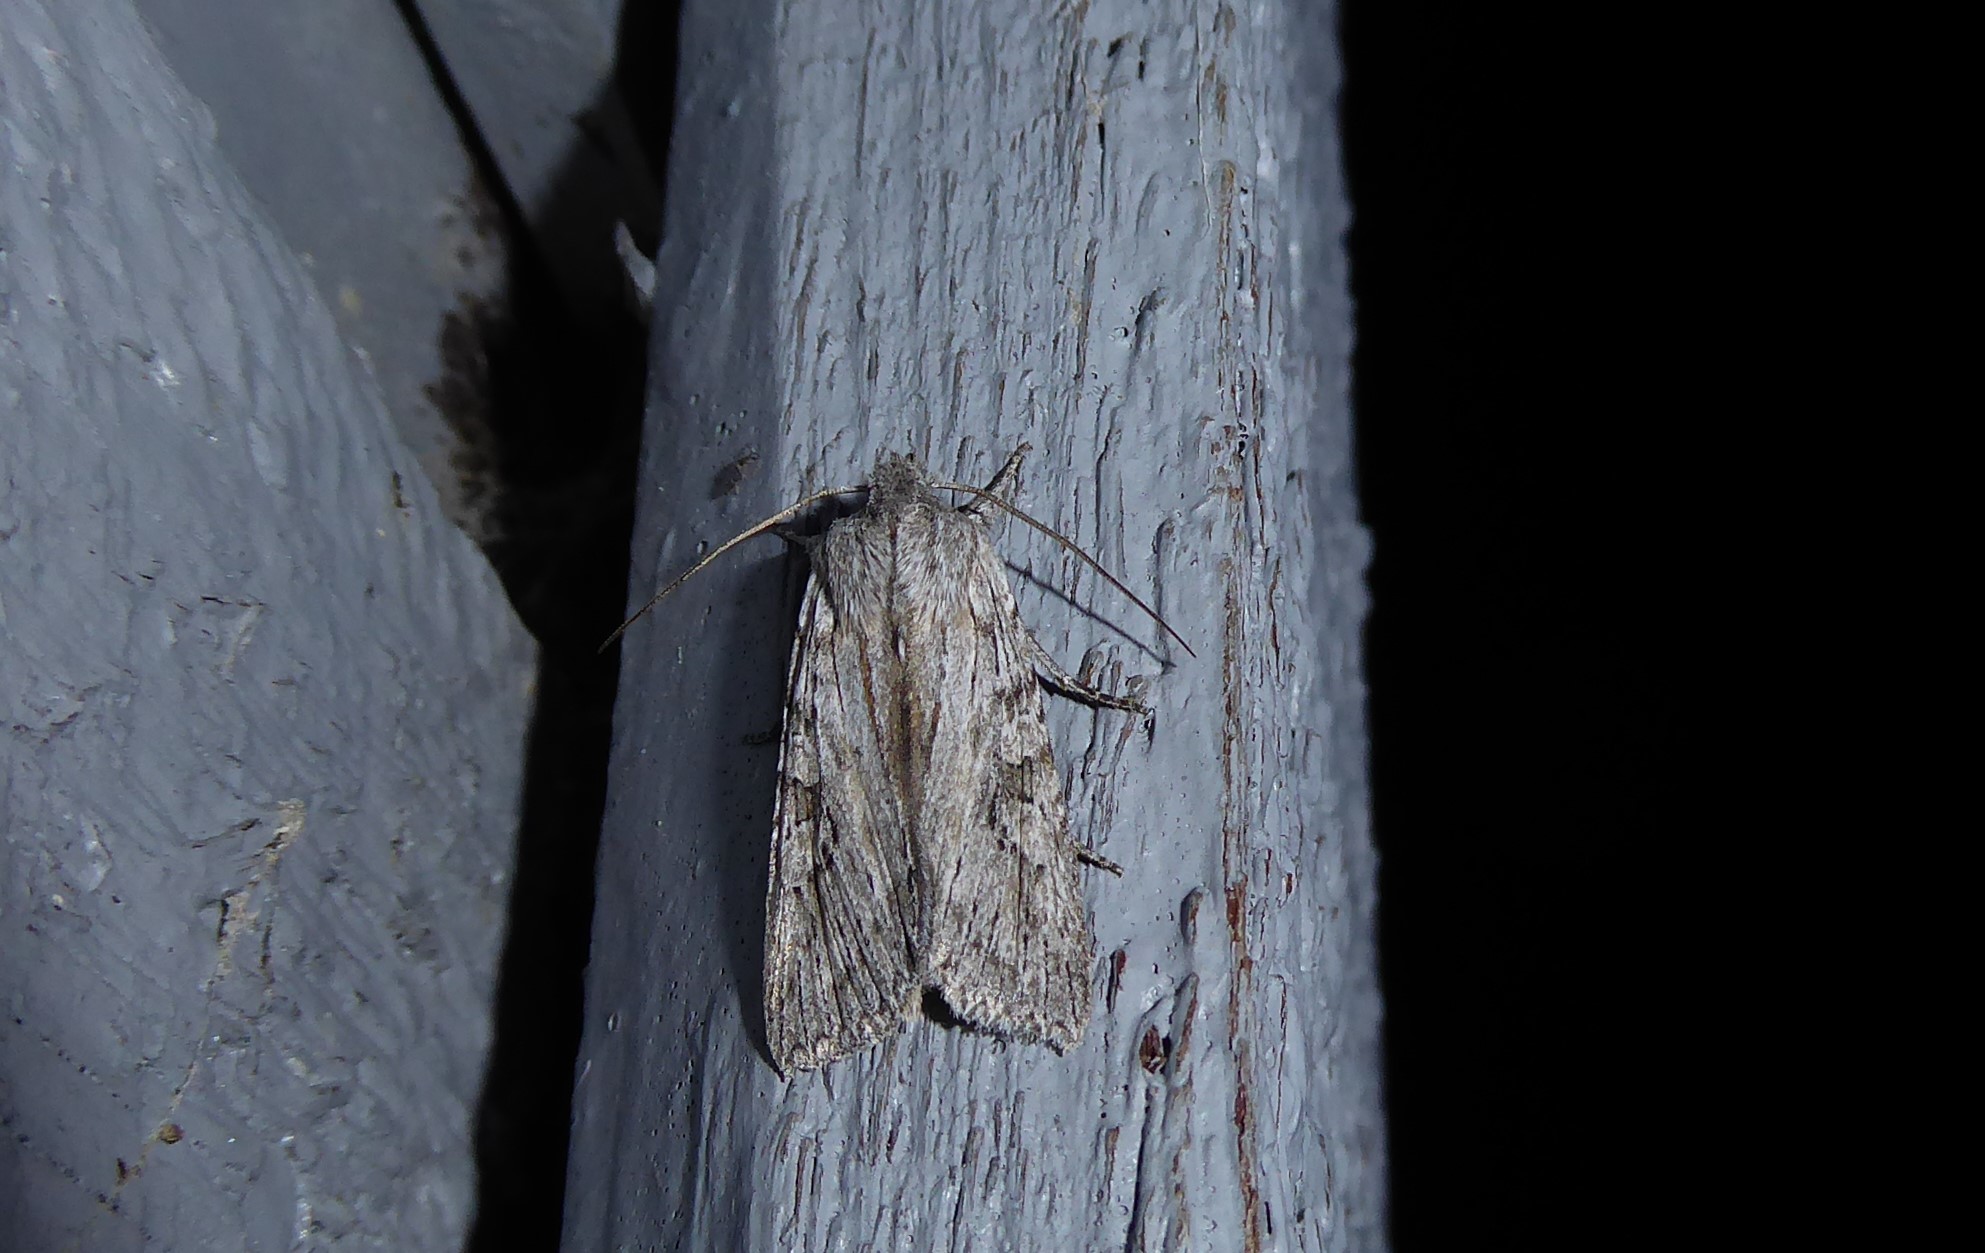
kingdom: Animalia
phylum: Arthropoda
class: Insecta
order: Lepidoptera
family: Noctuidae
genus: Physetica
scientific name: Physetica phricias
